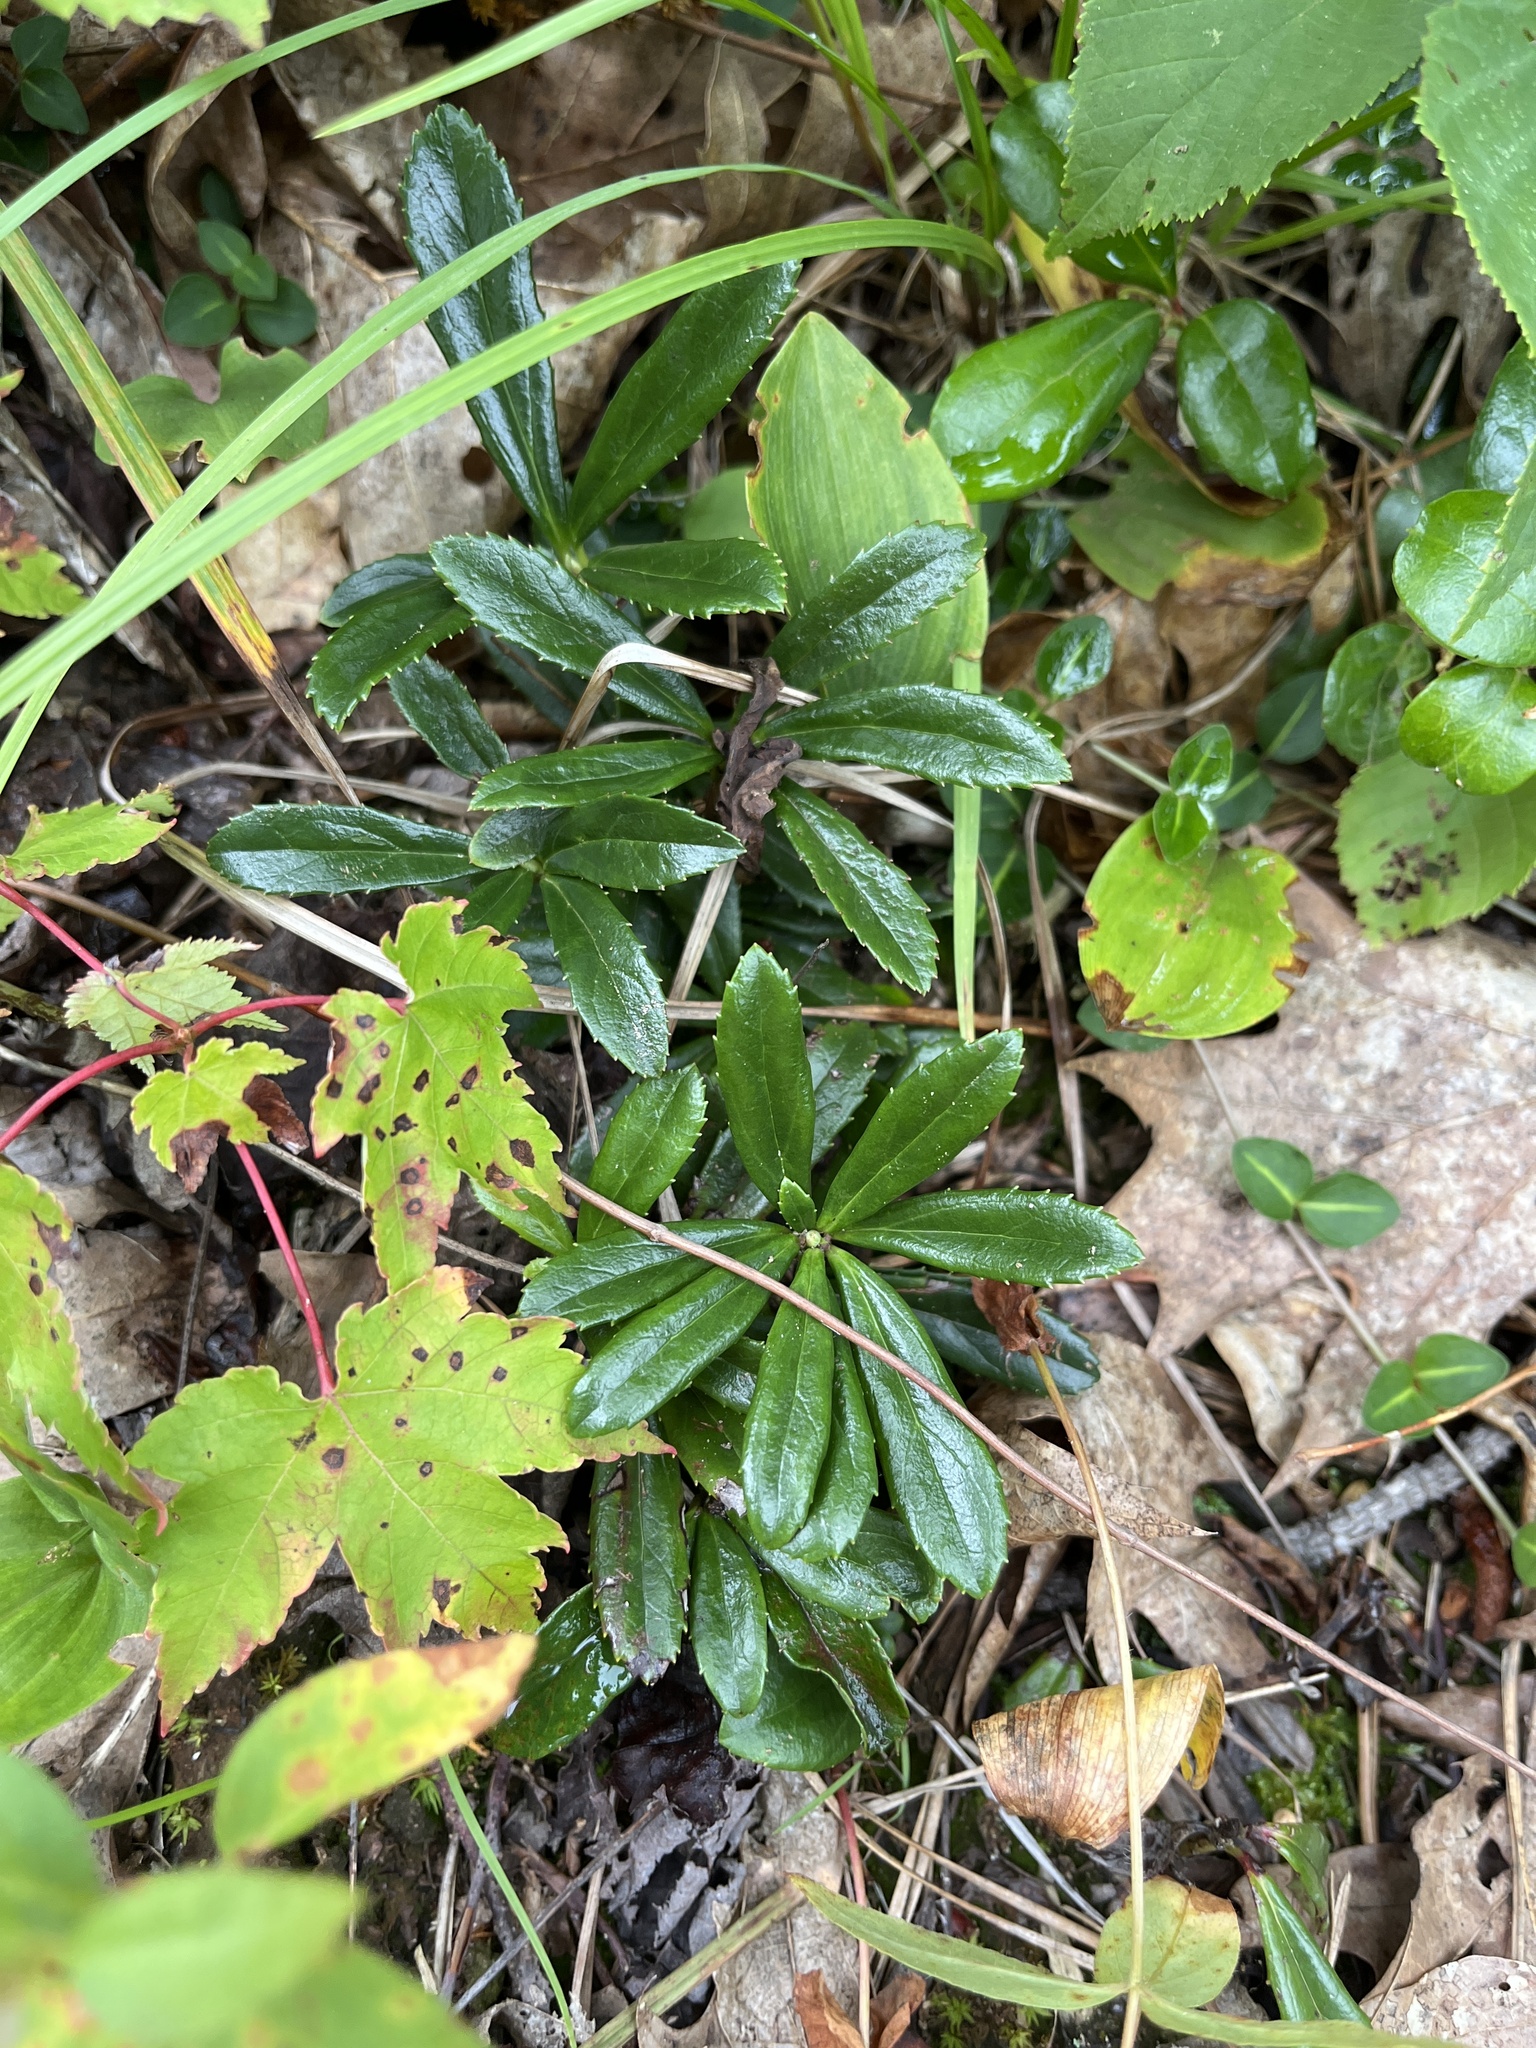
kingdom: Plantae
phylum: Tracheophyta
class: Magnoliopsida
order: Ericales
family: Ericaceae
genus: Chimaphila
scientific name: Chimaphila umbellata
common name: Pipsissewa
